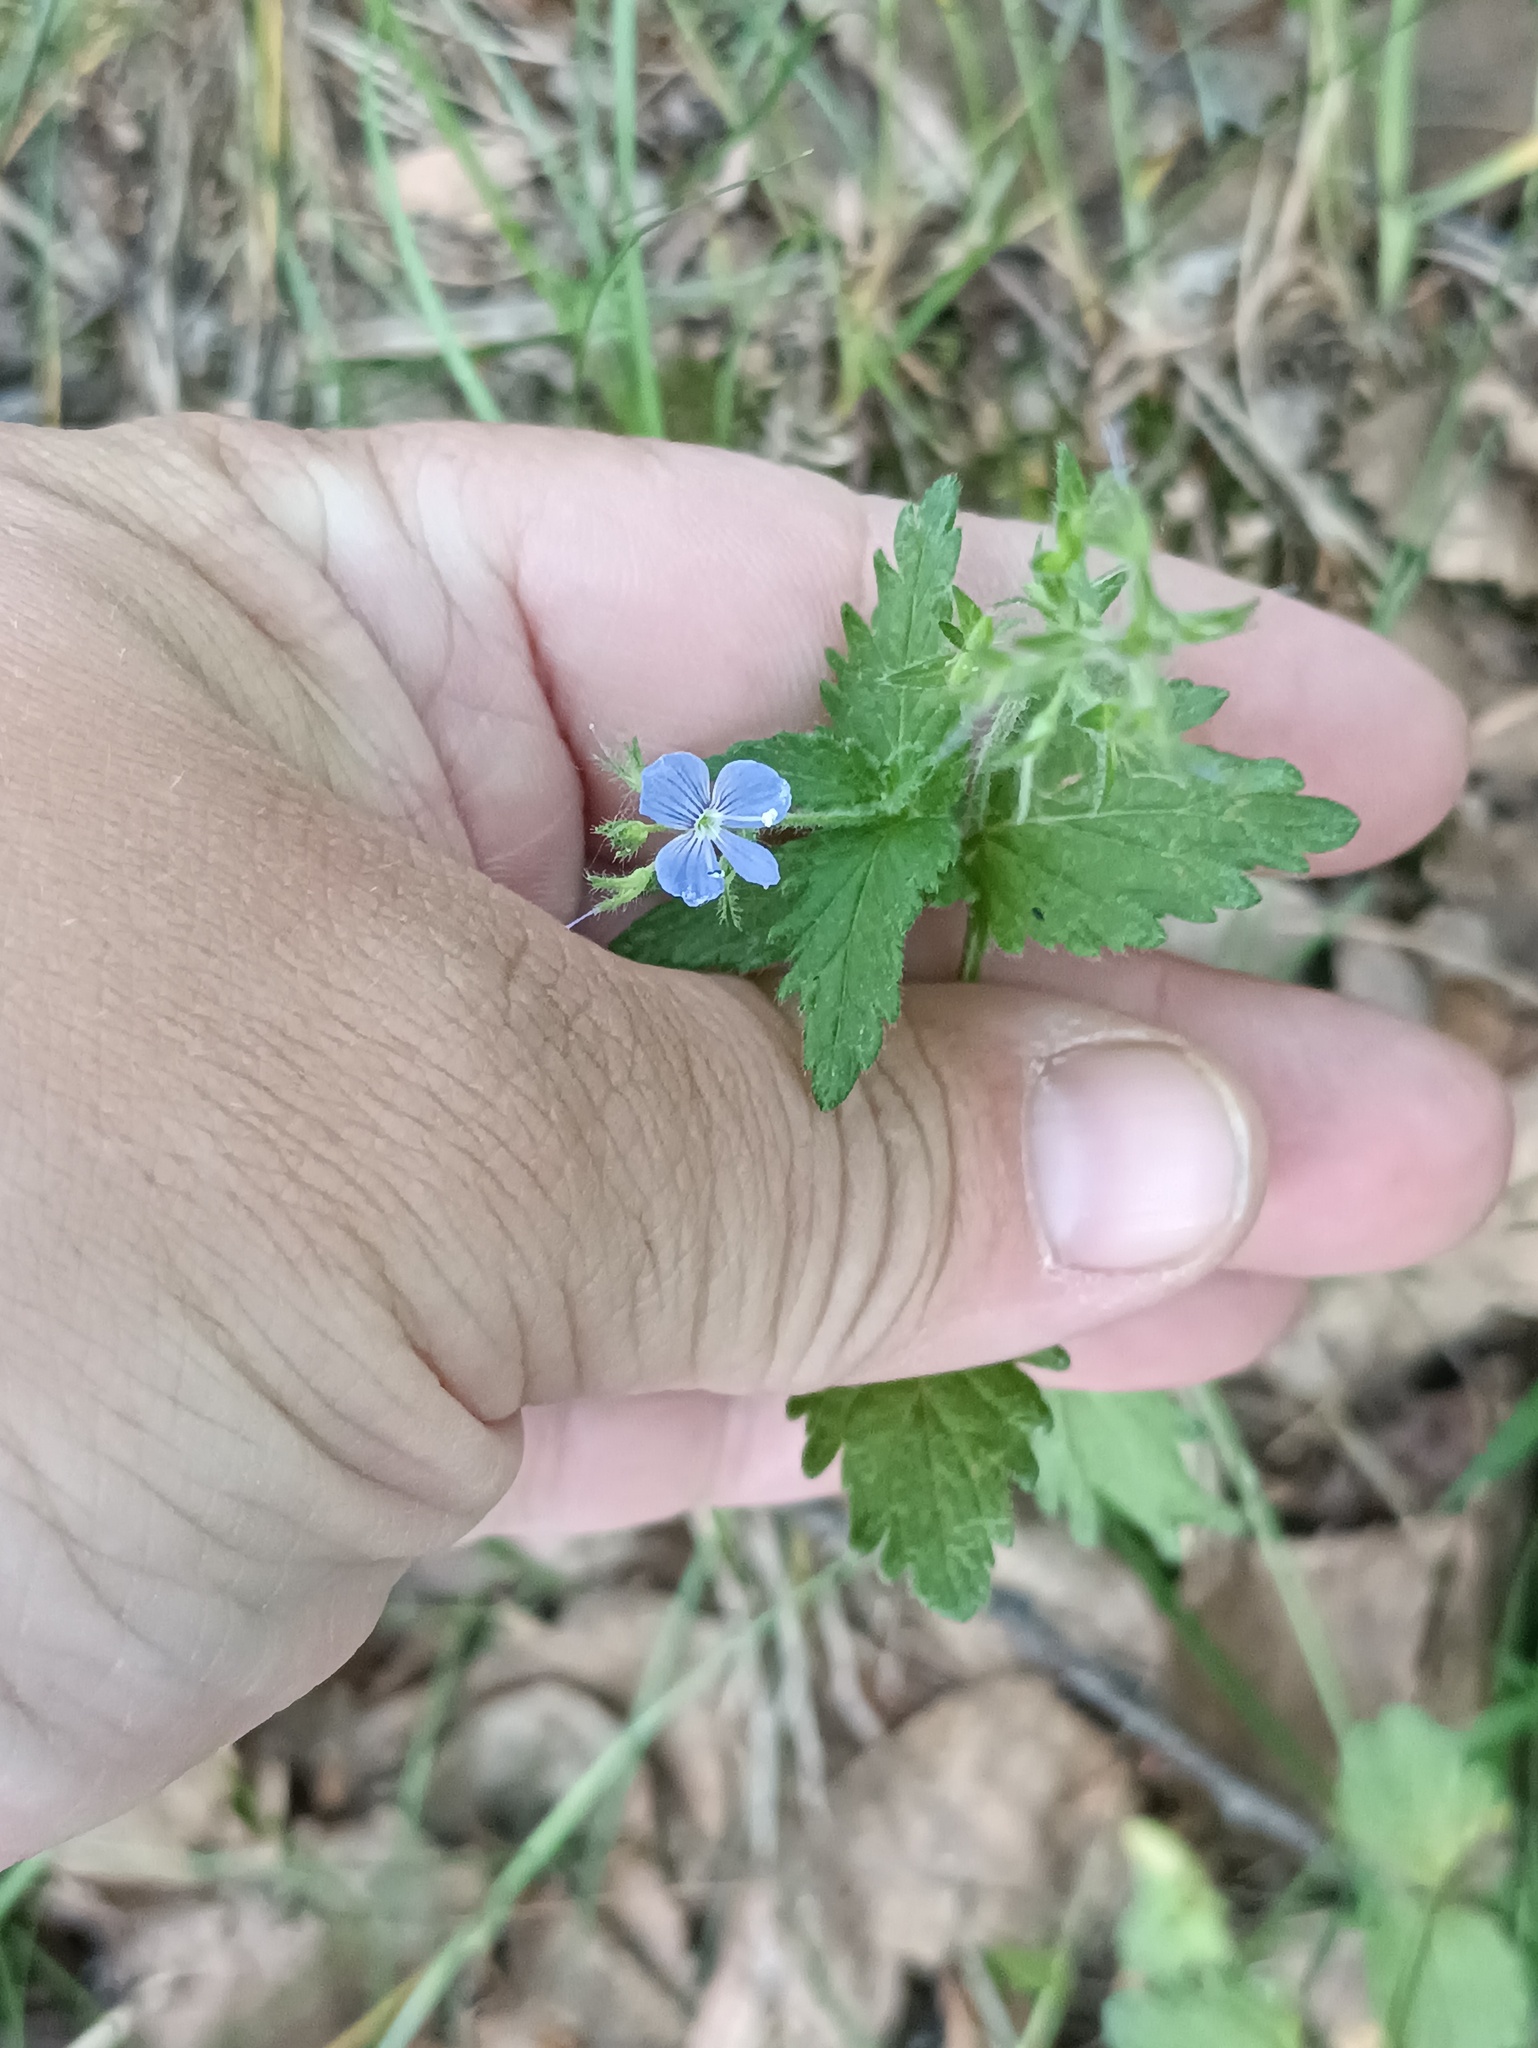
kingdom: Plantae
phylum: Tracheophyta
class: Magnoliopsida
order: Lamiales
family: Plantaginaceae
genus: Veronica
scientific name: Veronica chamaedrys
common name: Germander speedwell
